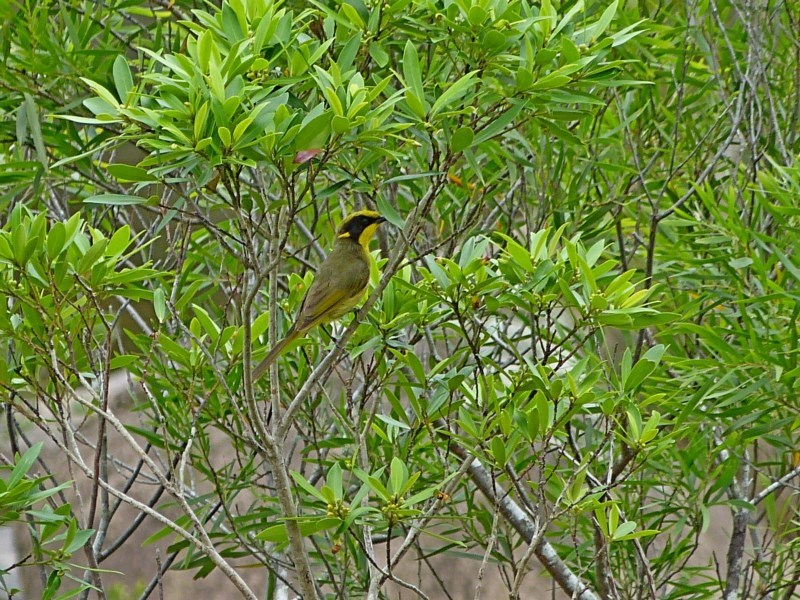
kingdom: Animalia
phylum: Chordata
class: Aves
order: Passeriformes
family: Meliphagidae
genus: Lichenostomus
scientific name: Lichenostomus melanops
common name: Yellow-tufted honeyeater
